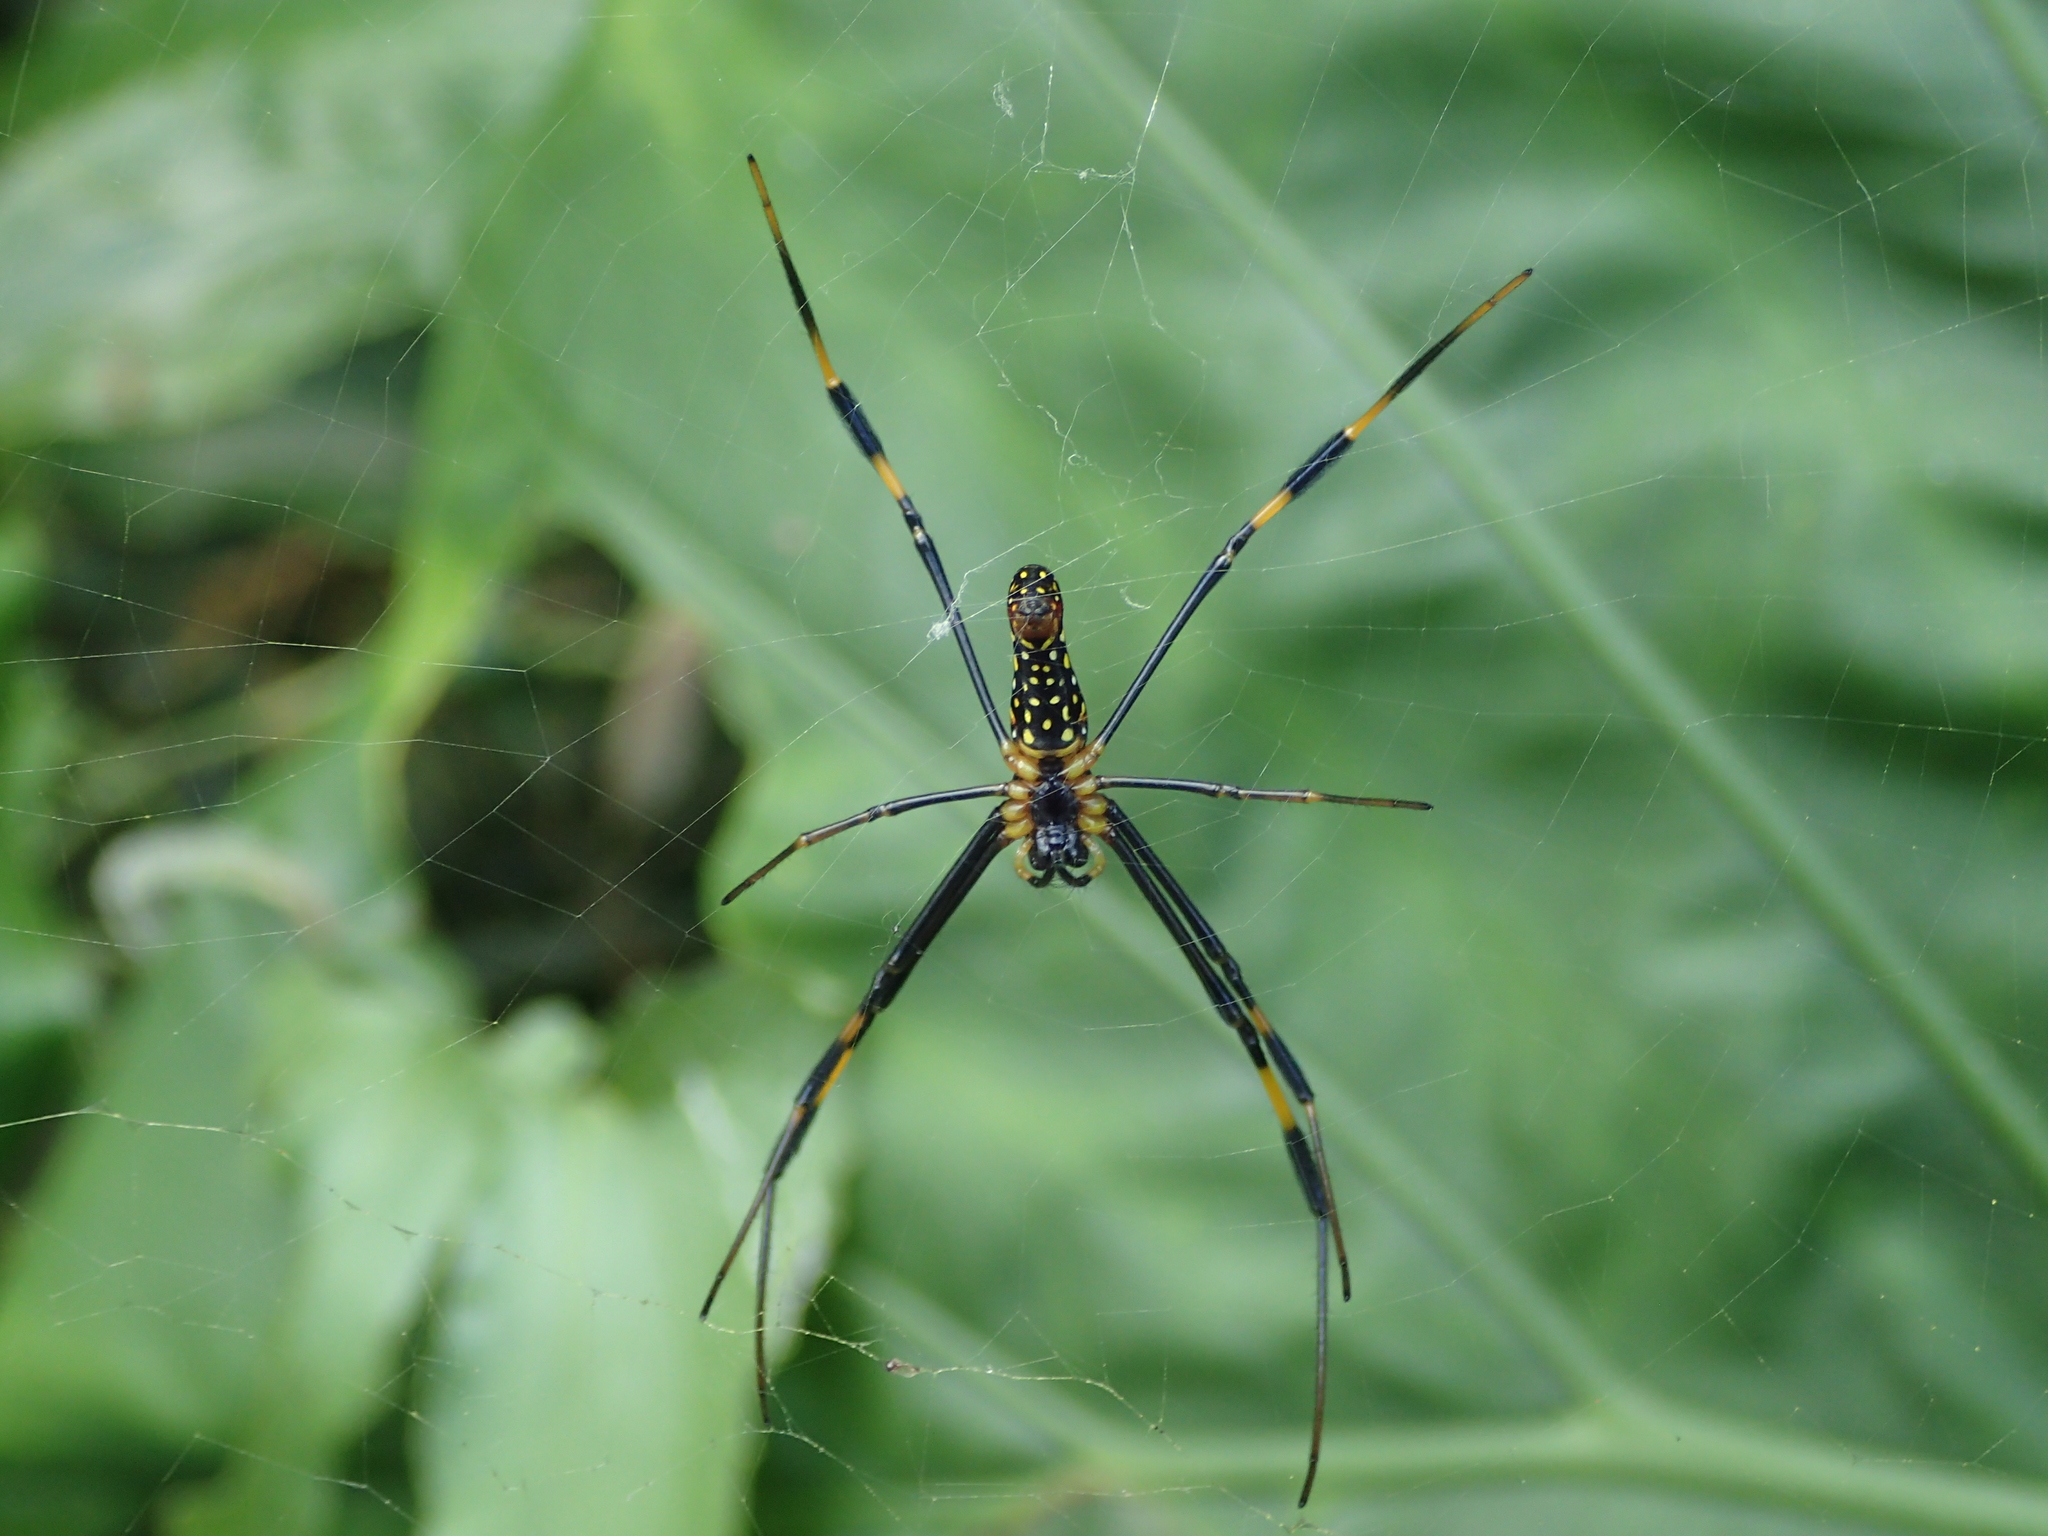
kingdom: Animalia
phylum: Arthropoda
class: Arachnida
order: Araneae
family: Araneidae
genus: Nephila
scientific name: Nephila pilipes
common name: Giant golden orb weaver
